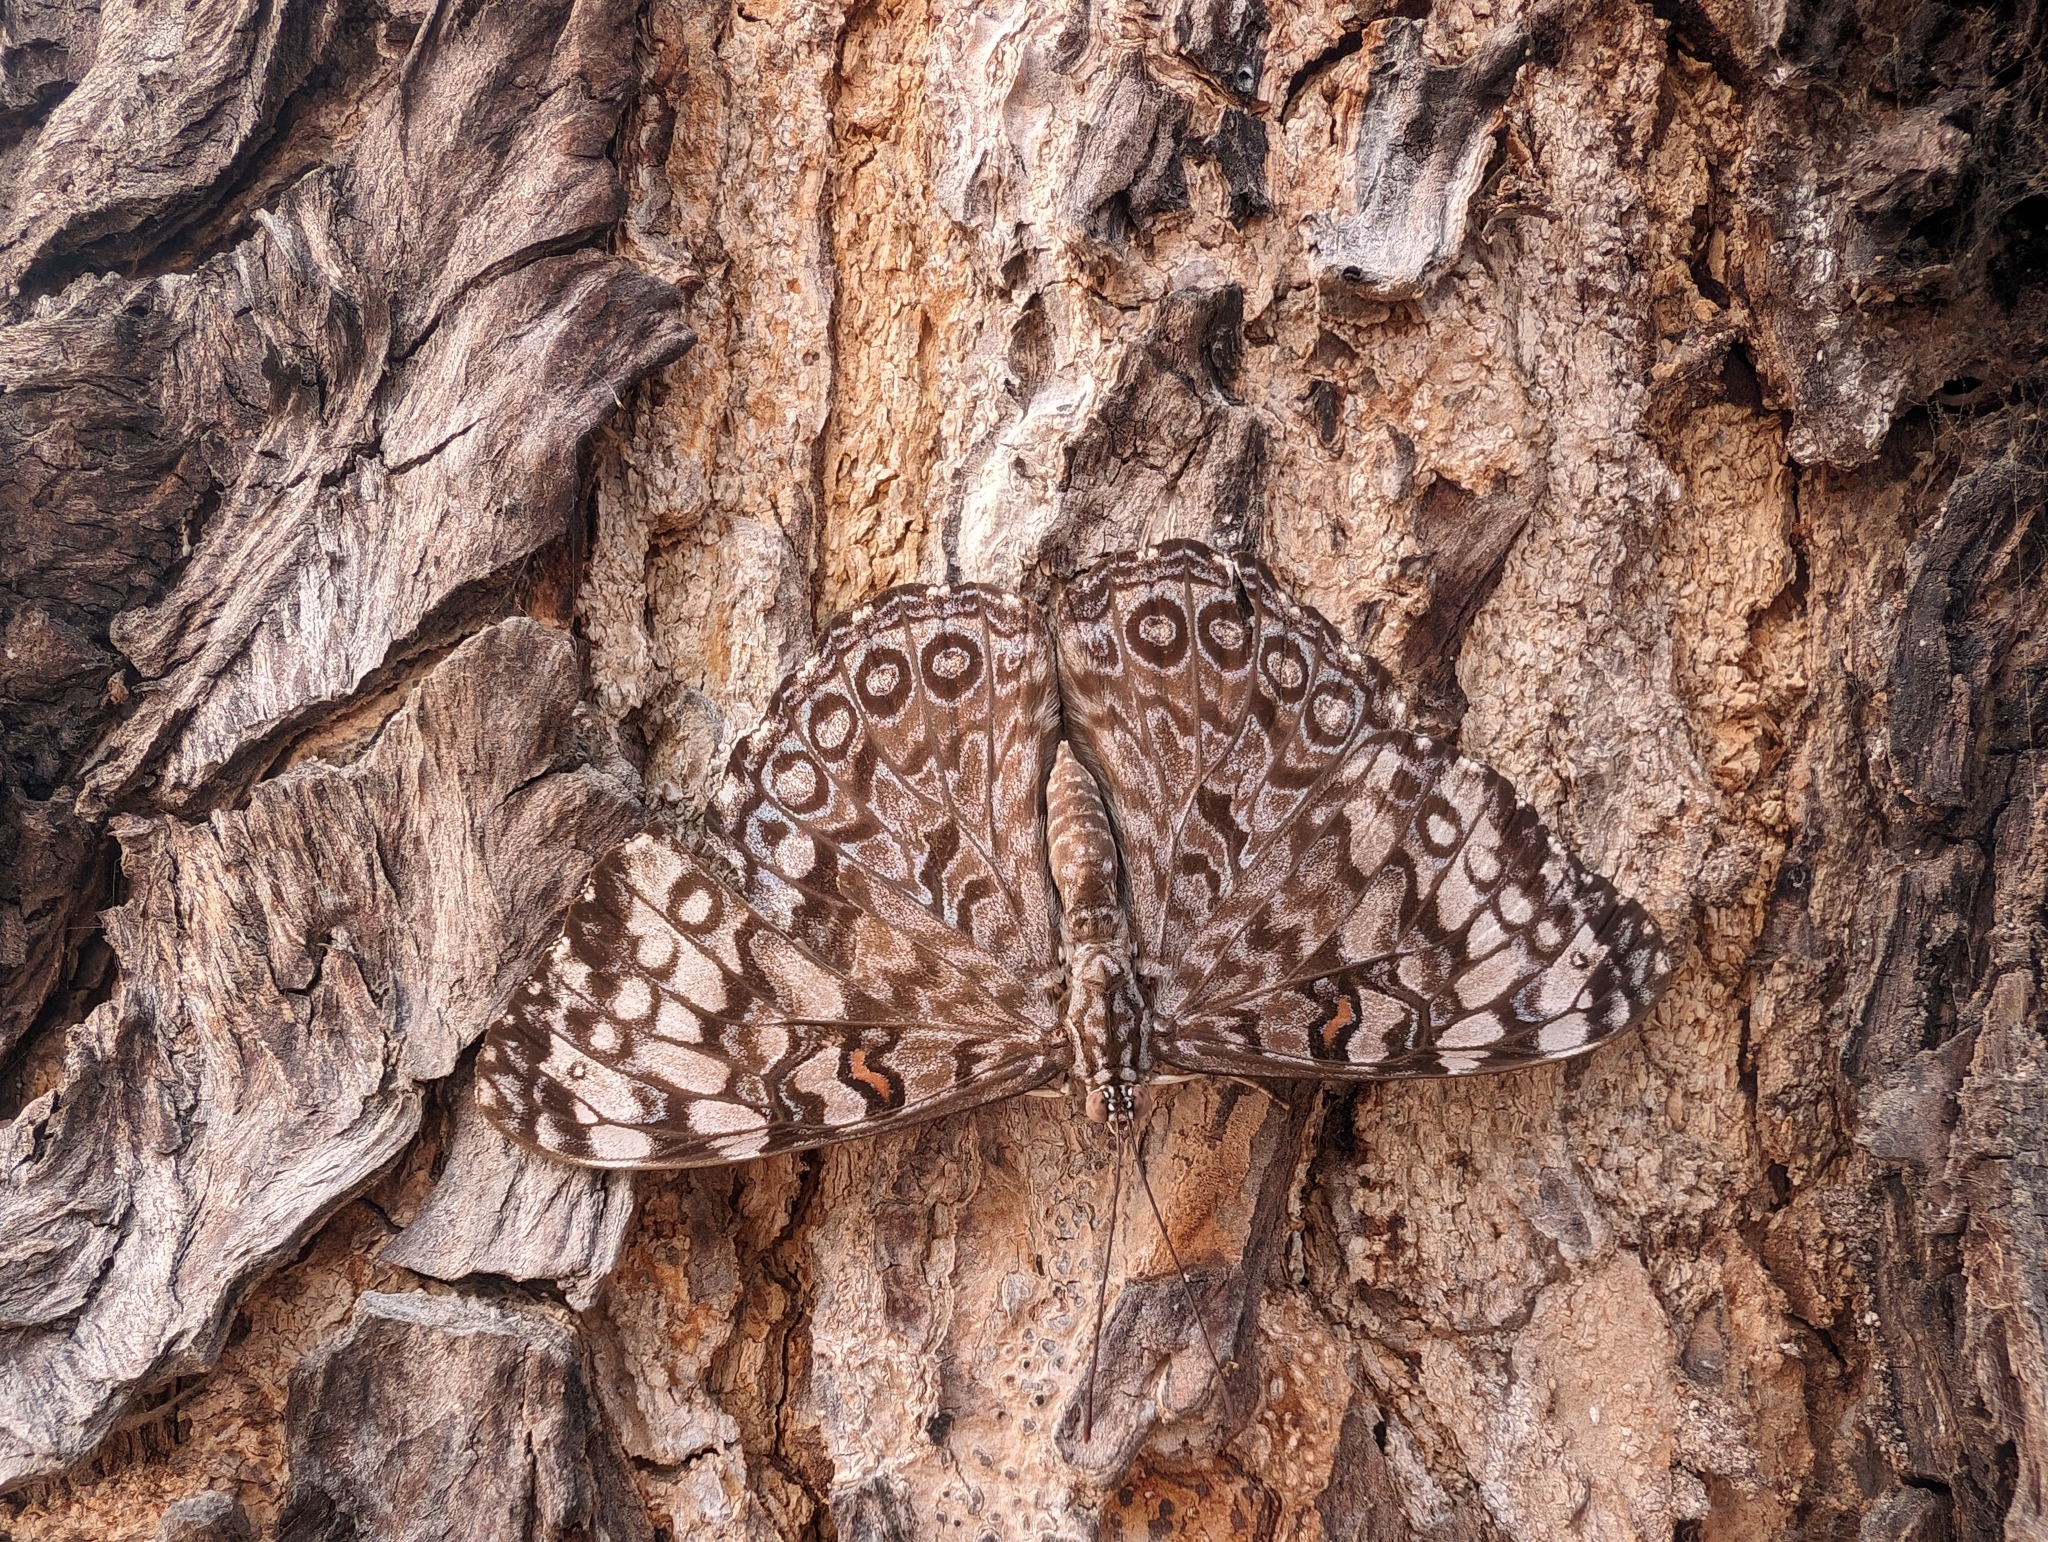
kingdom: Animalia
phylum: Arthropoda
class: Insecta
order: Lepidoptera
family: Nymphalidae
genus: Hamadryas
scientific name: Hamadryas guatemalena
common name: Guatemalan cracker
